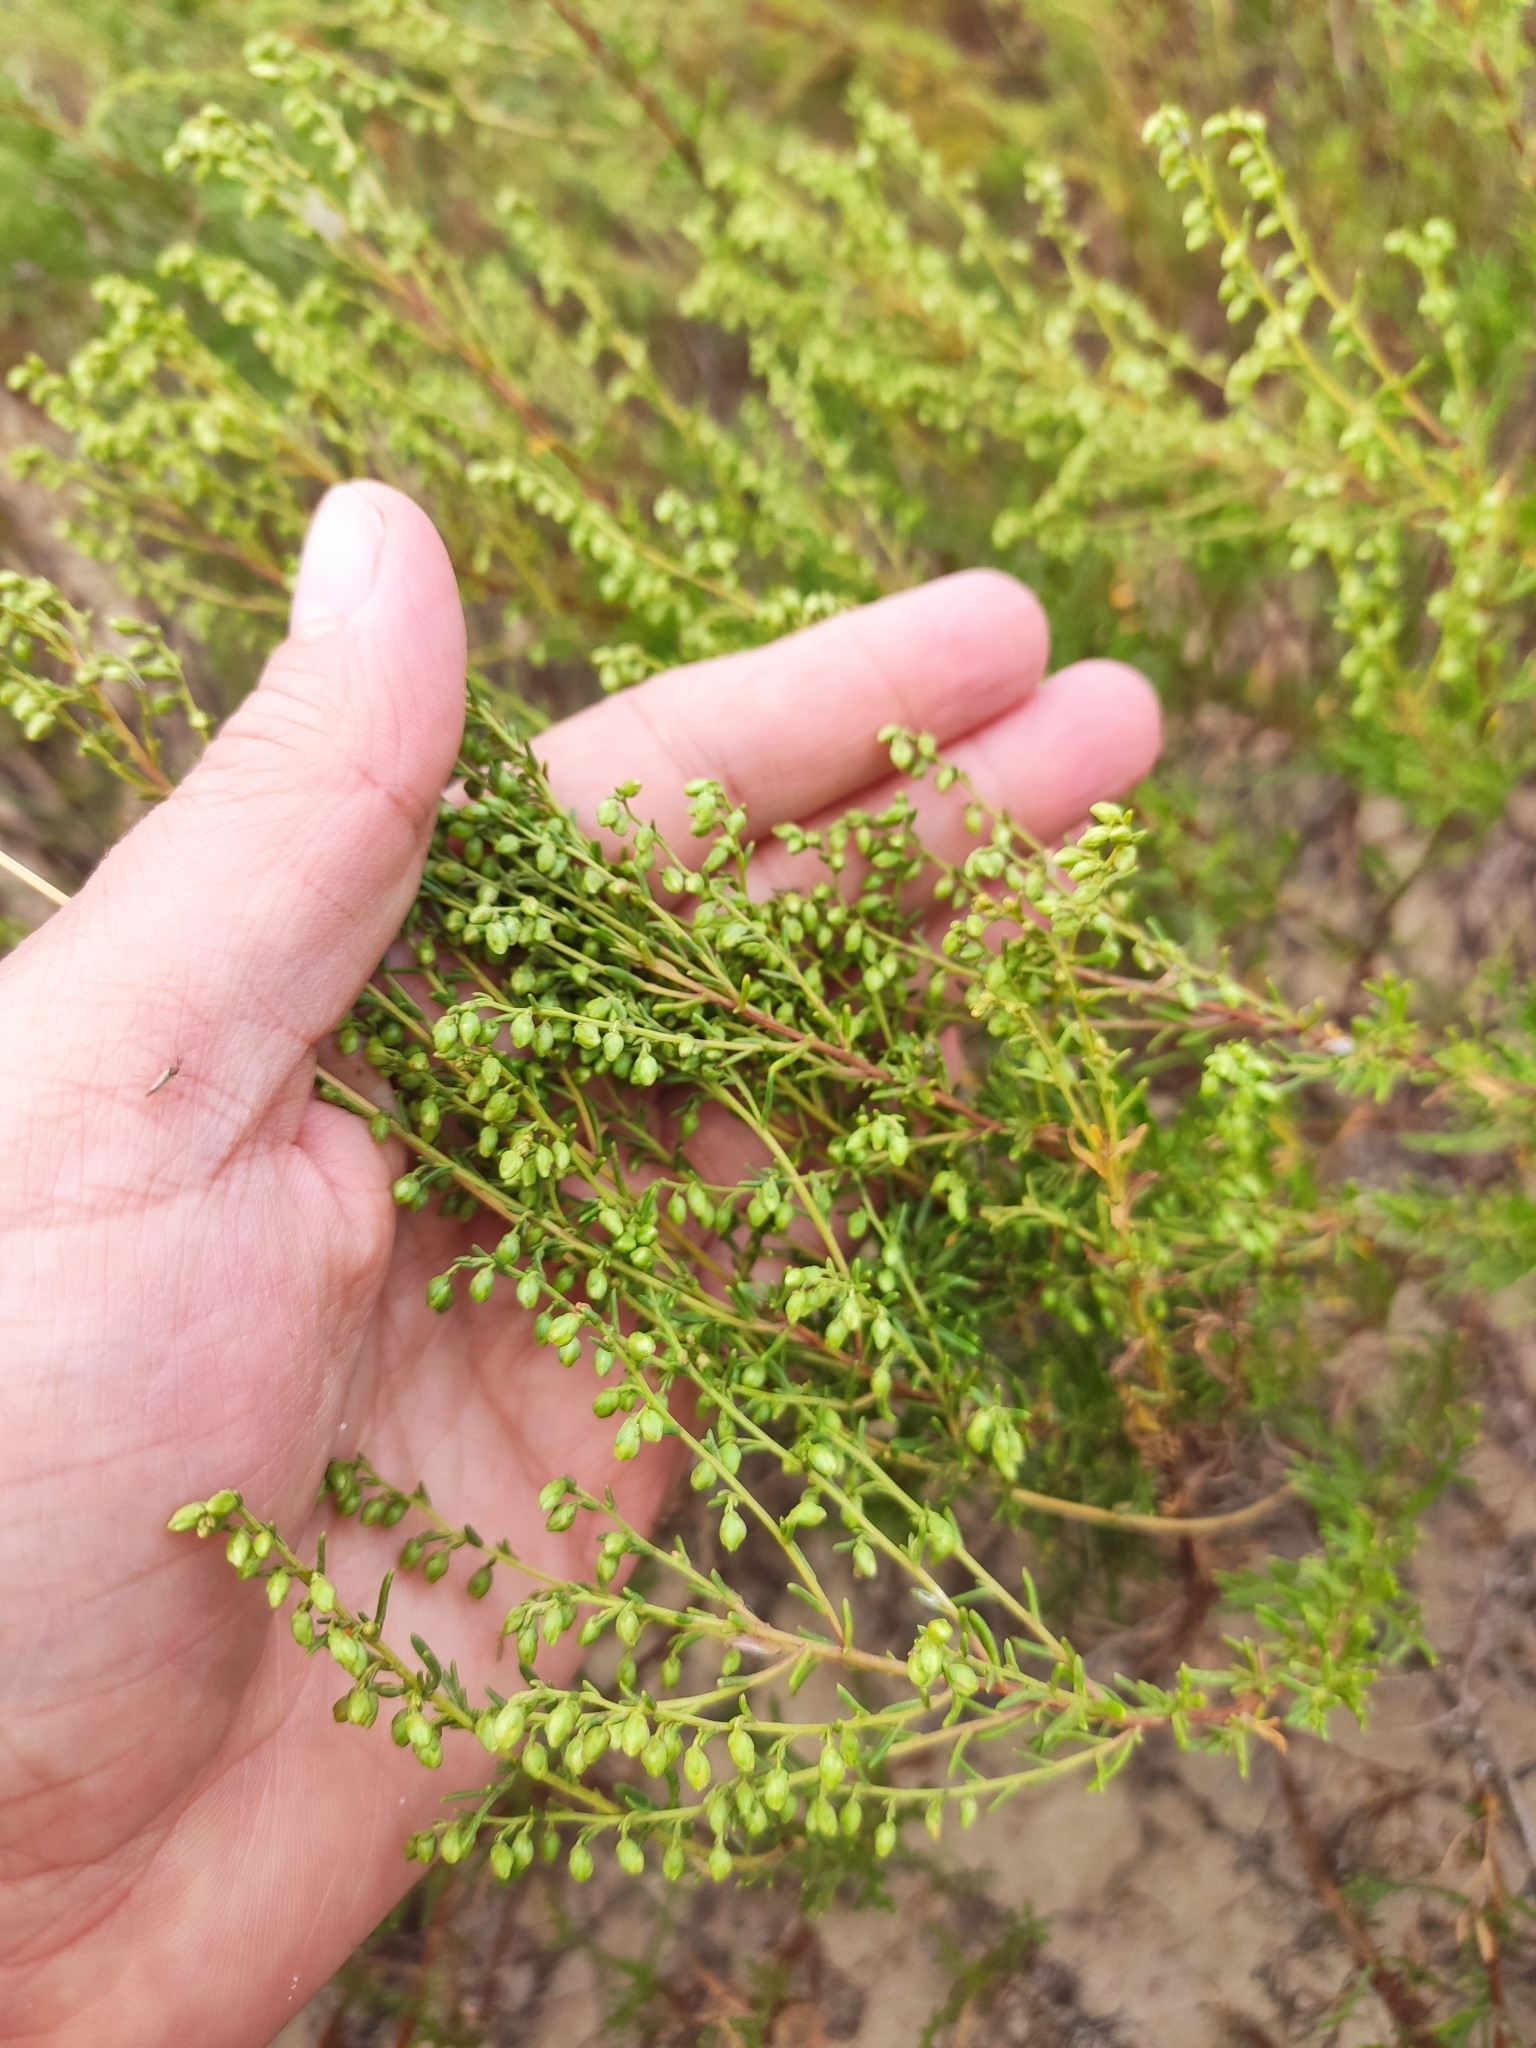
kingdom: Plantae
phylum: Tracheophyta
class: Magnoliopsida
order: Asterales
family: Asteraceae
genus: Artemisia
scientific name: Artemisia arenaria
